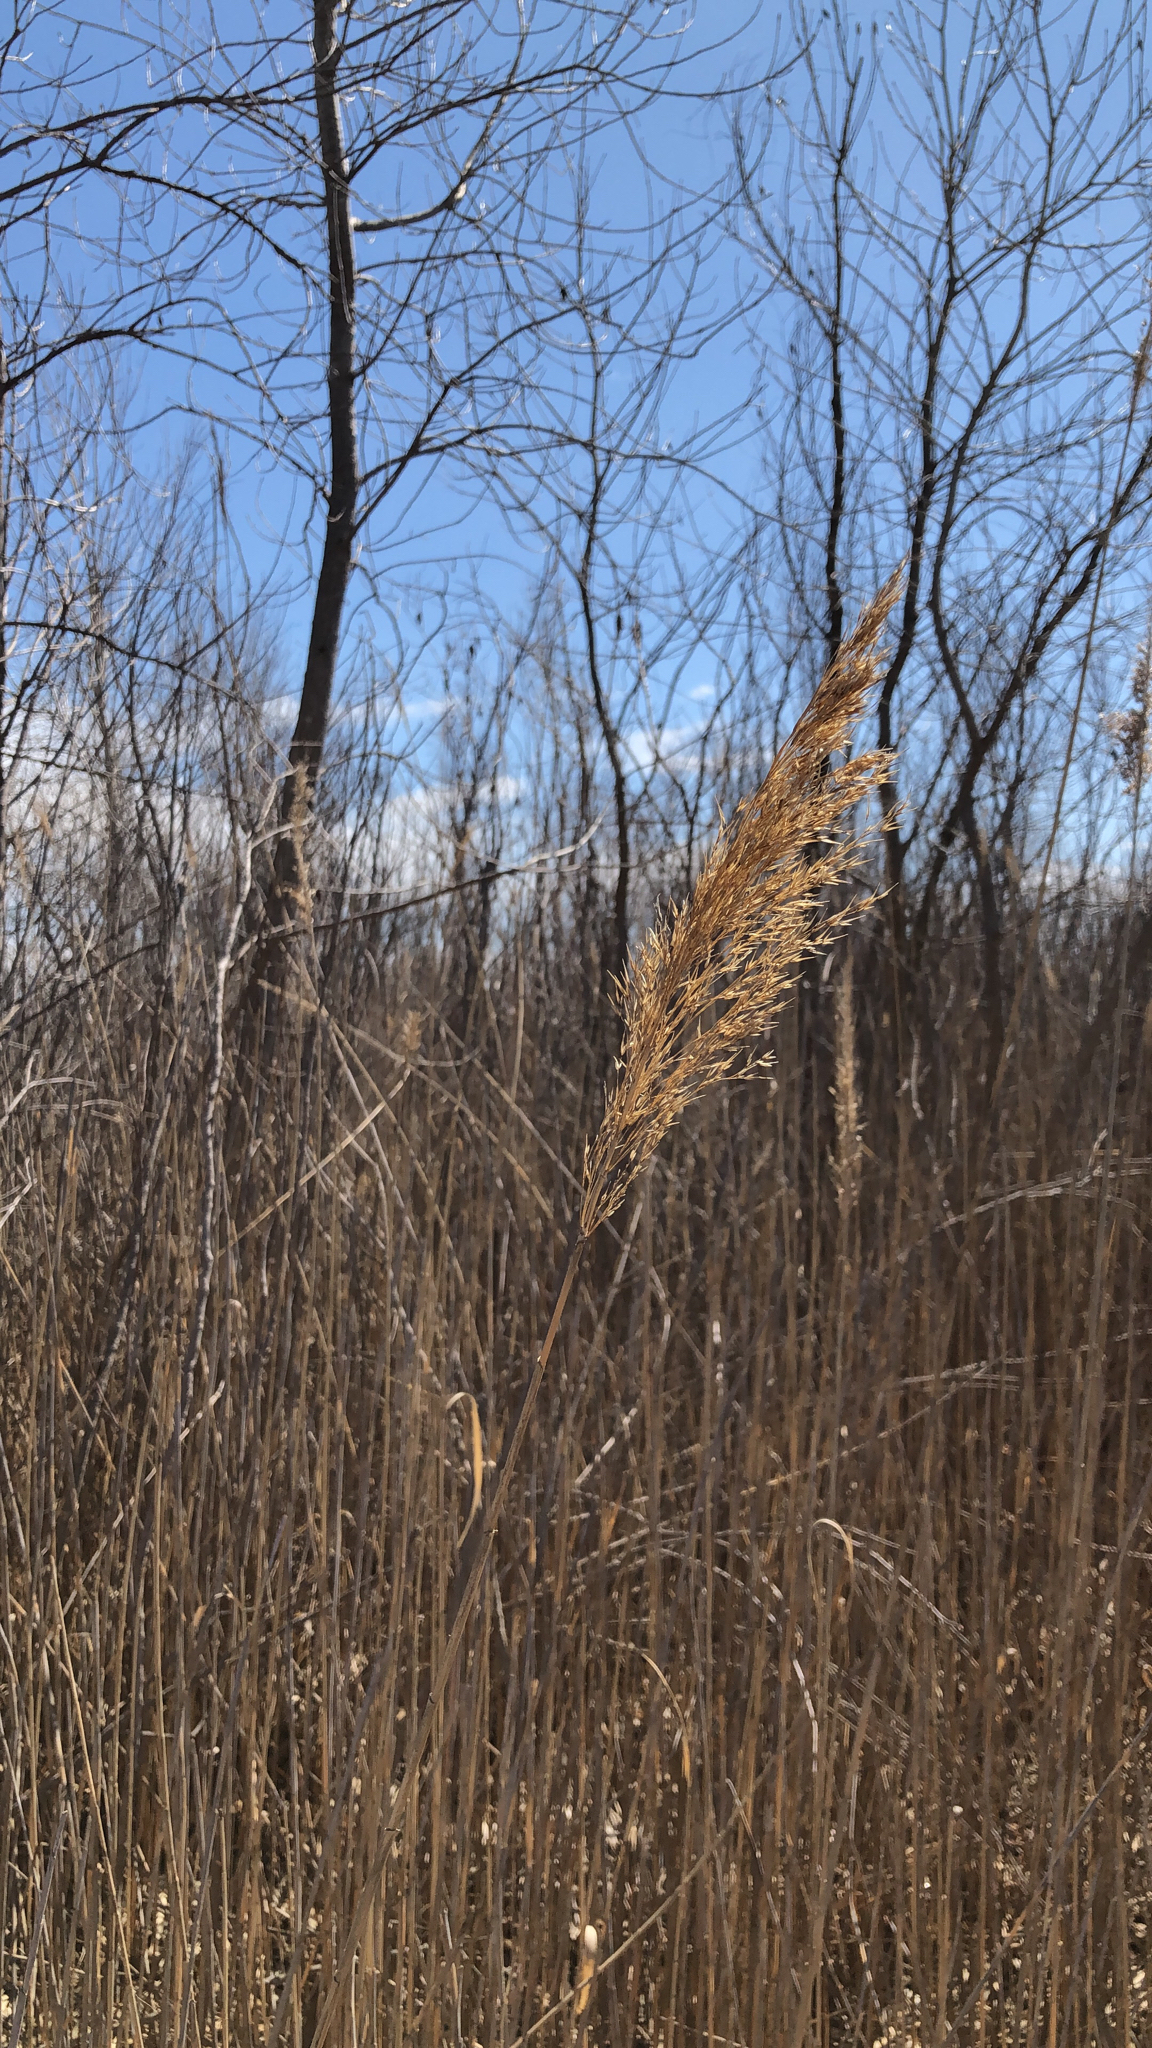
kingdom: Plantae
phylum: Tracheophyta
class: Liliopsida
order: Poales
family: Poaceae
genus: Phragmites
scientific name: Phragmites australis
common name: Common reed
